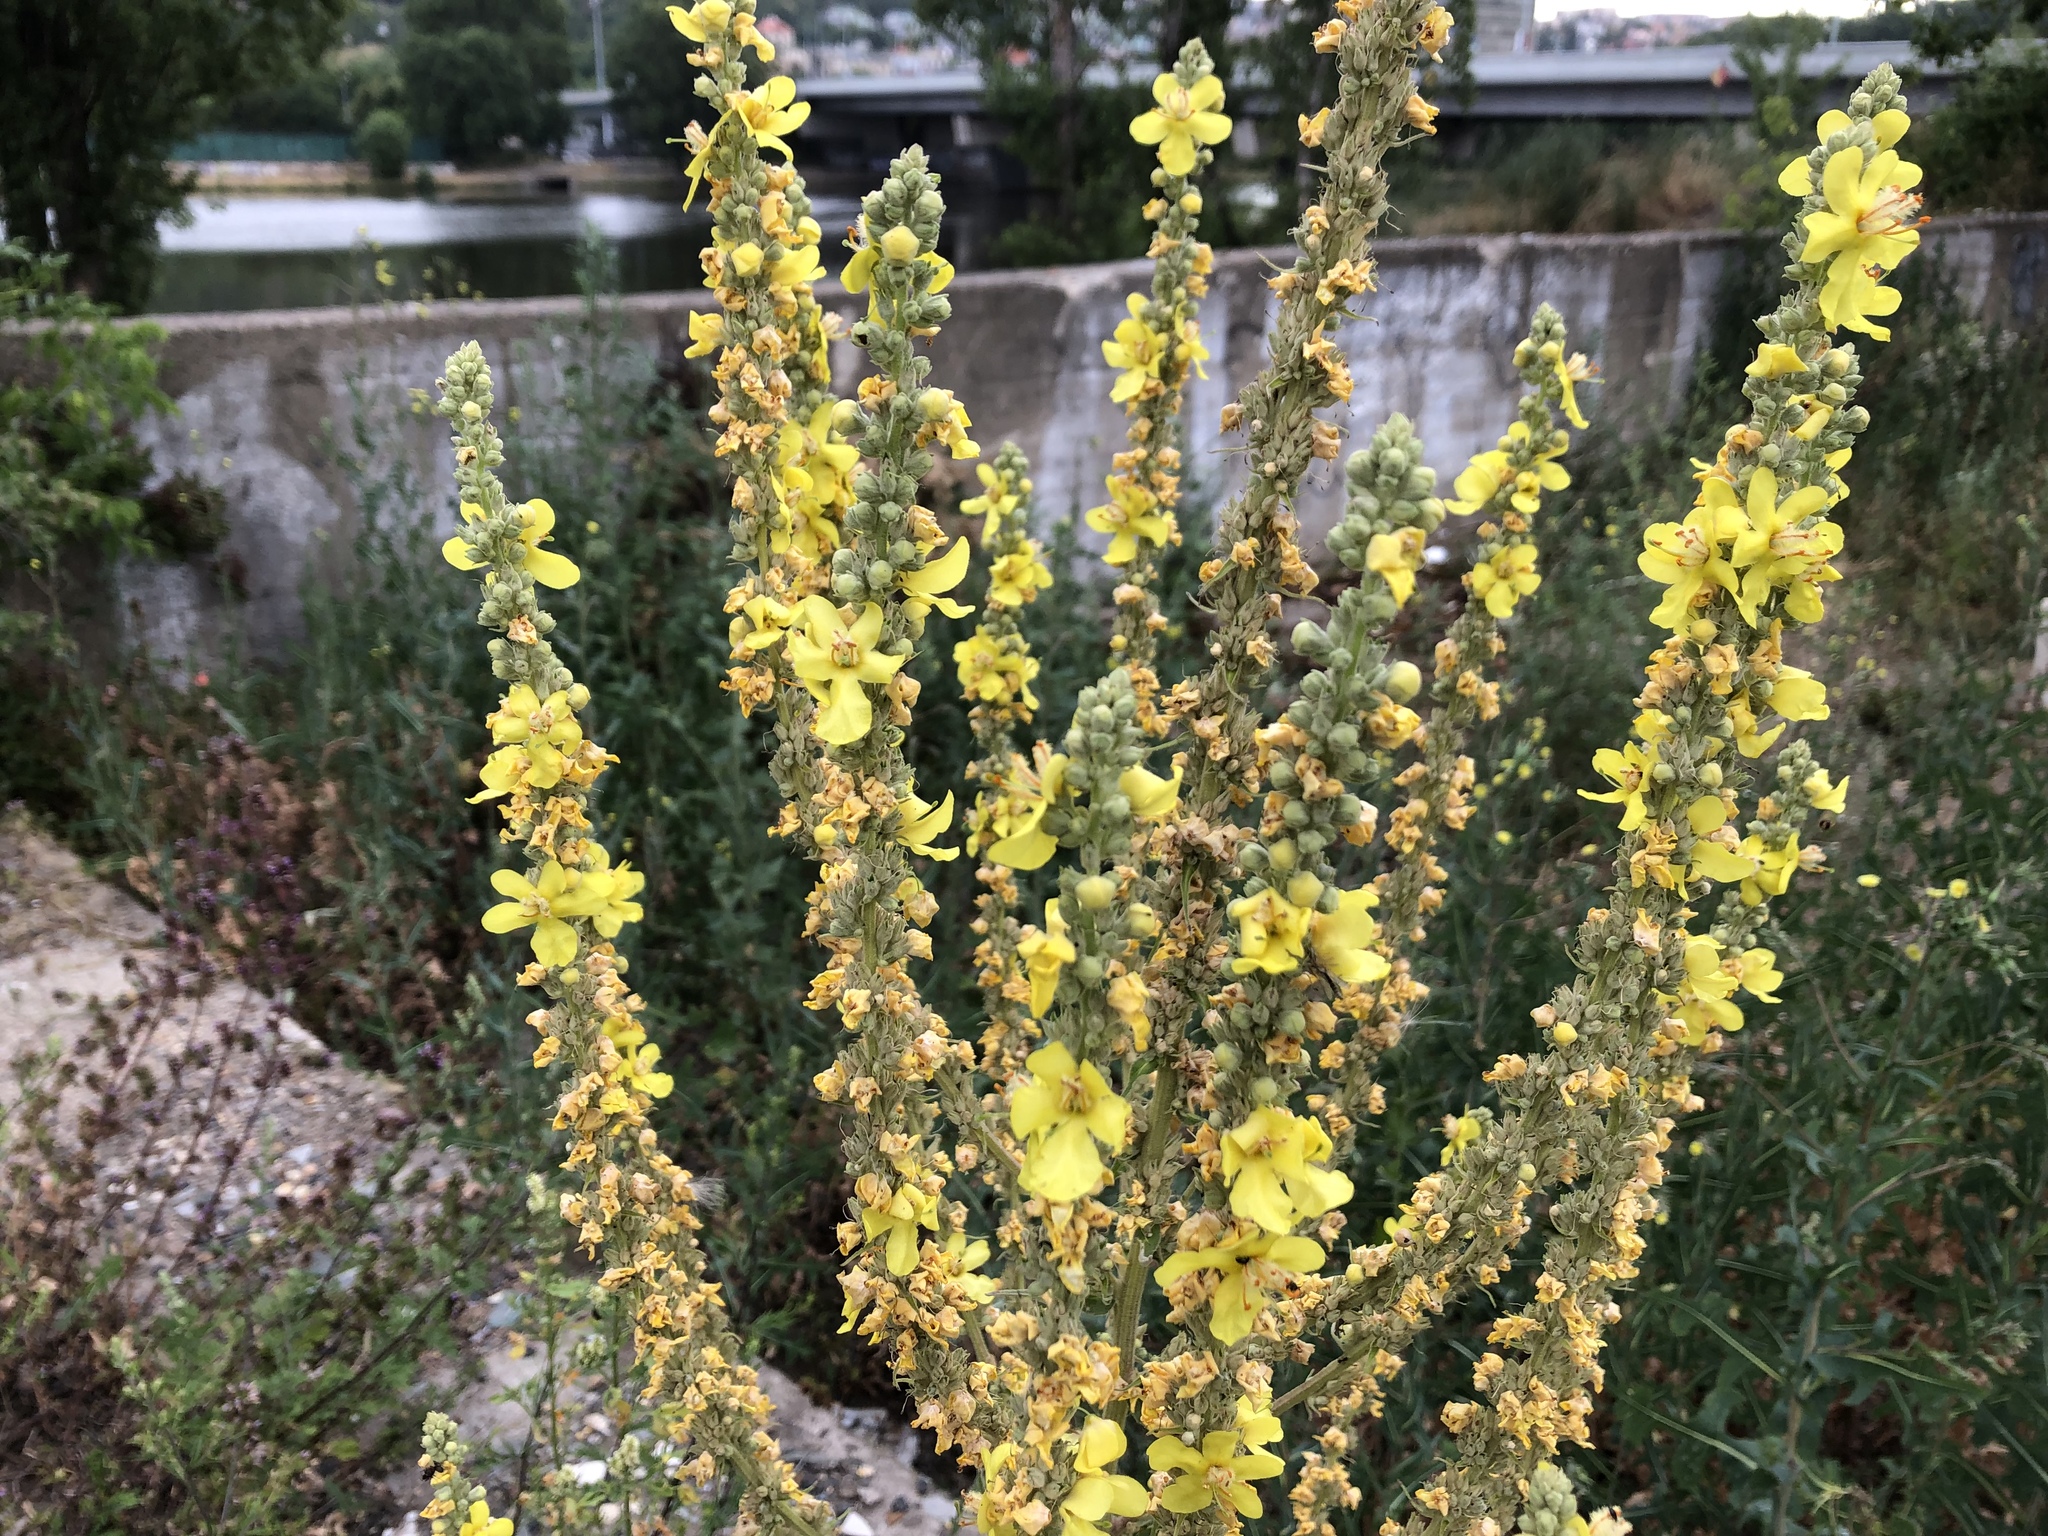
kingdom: Plantae
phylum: Tracheophyta
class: Magnoliopsida
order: Lamiales
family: Scrophulariaceae
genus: Verbascum
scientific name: Verbascum lychnitis
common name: White mullein
